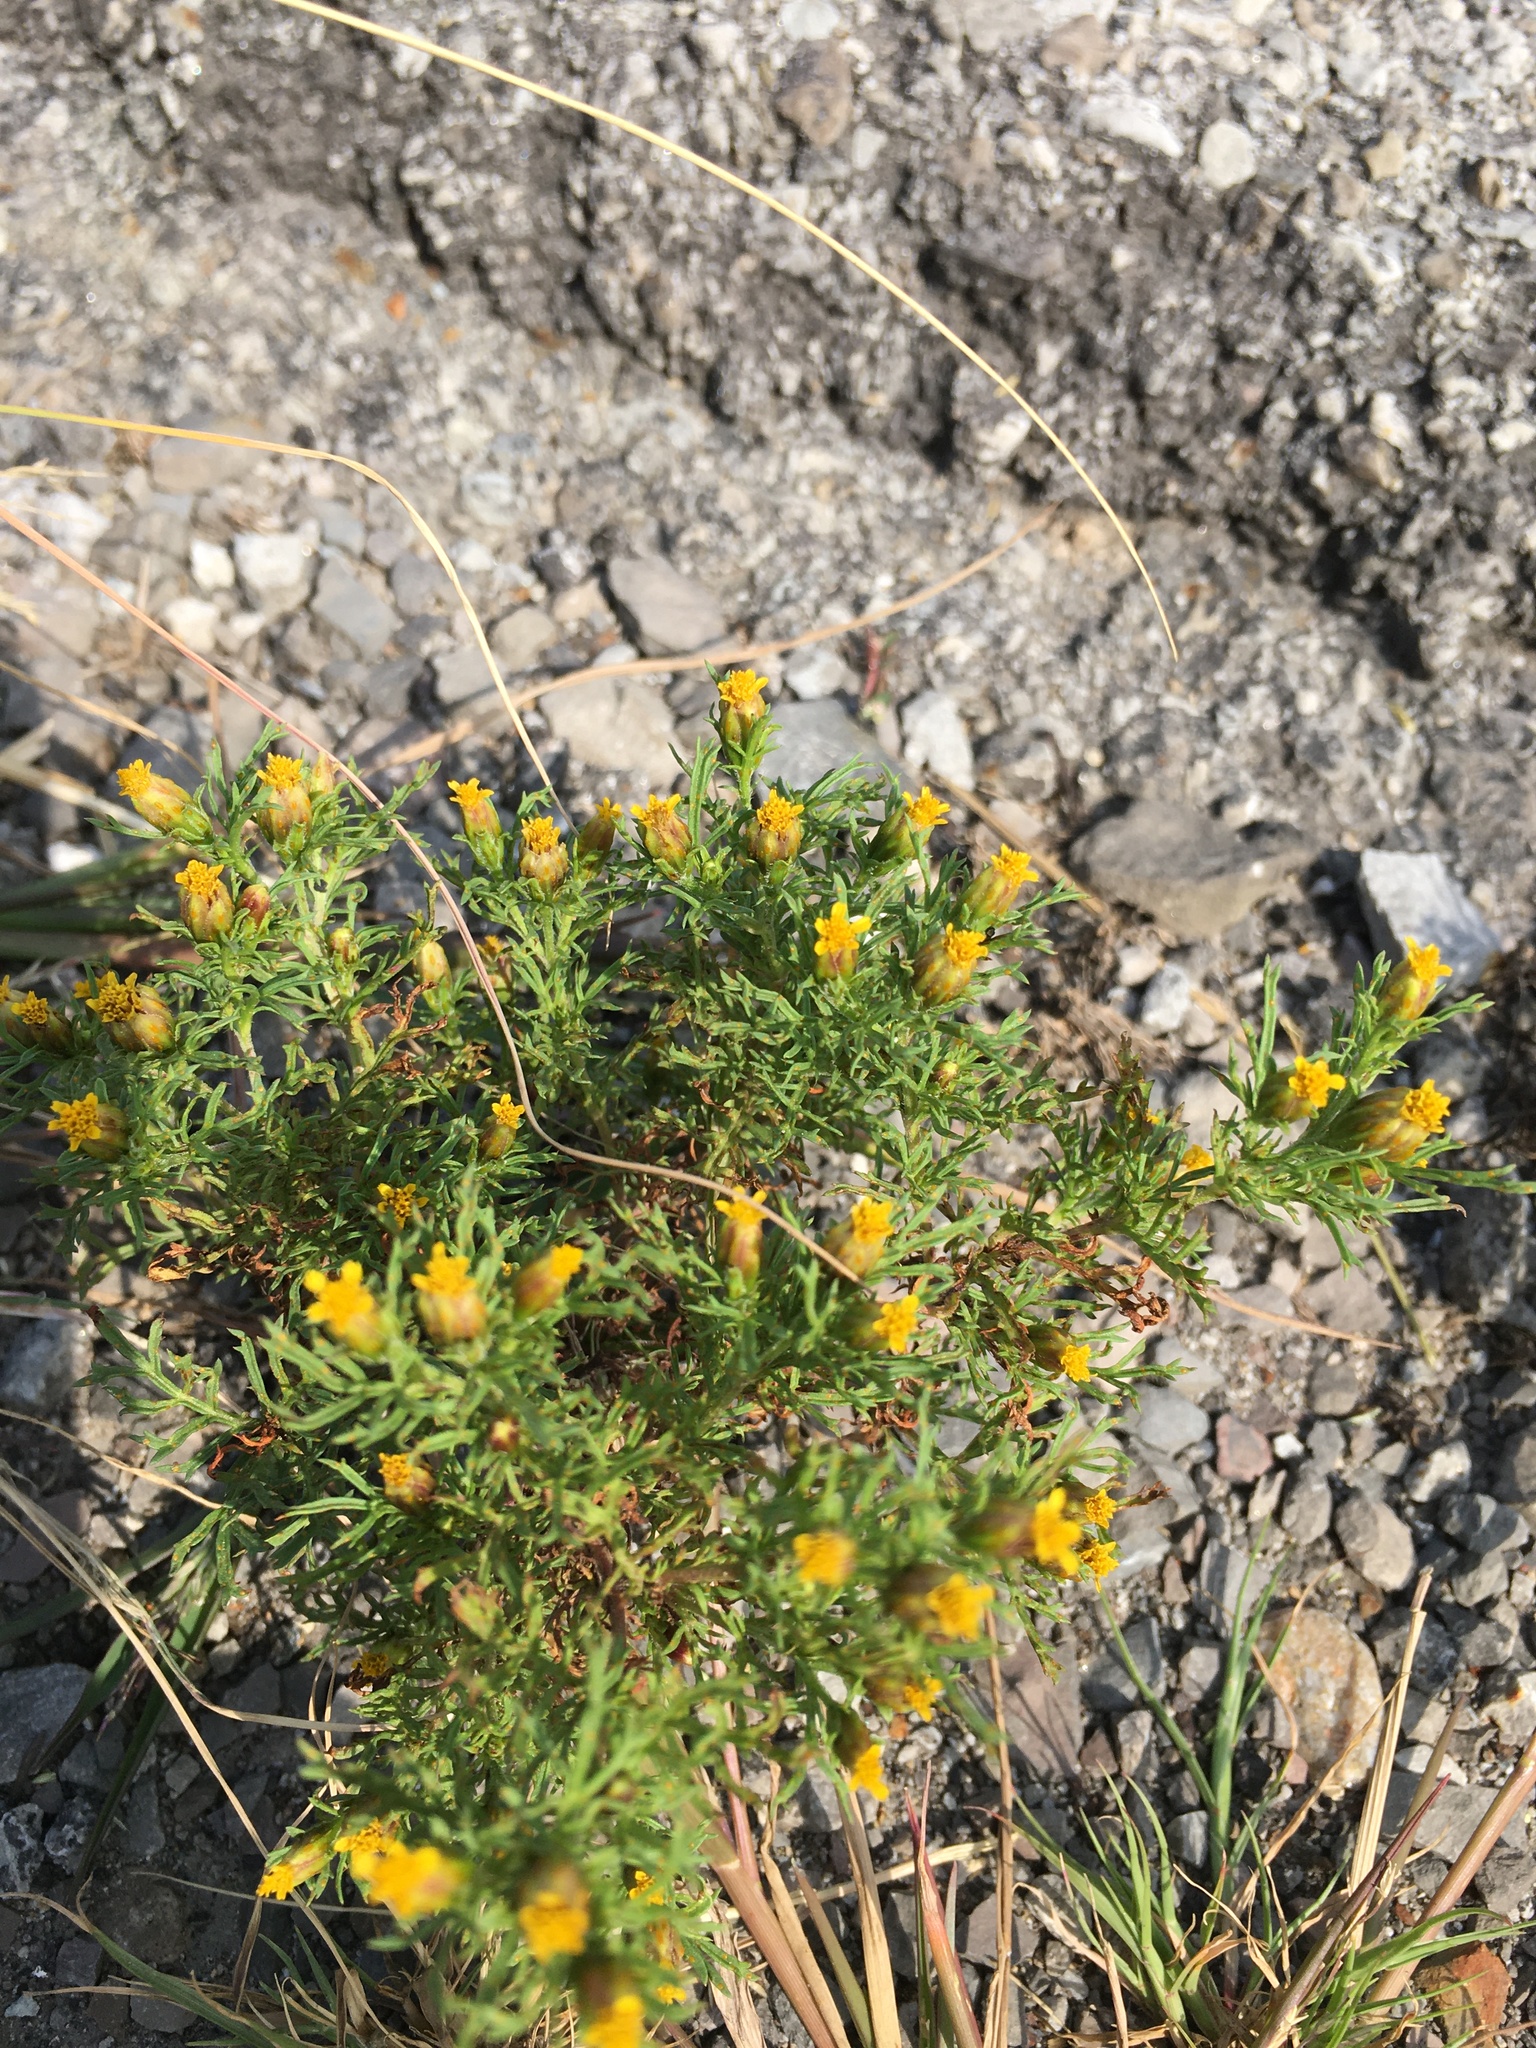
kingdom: Plantae
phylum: Tracheophyta
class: Magnoliopsida
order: Asterales
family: Asteraceae
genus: Dyssodia
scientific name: Dyssodia papposa
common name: Dogweed
